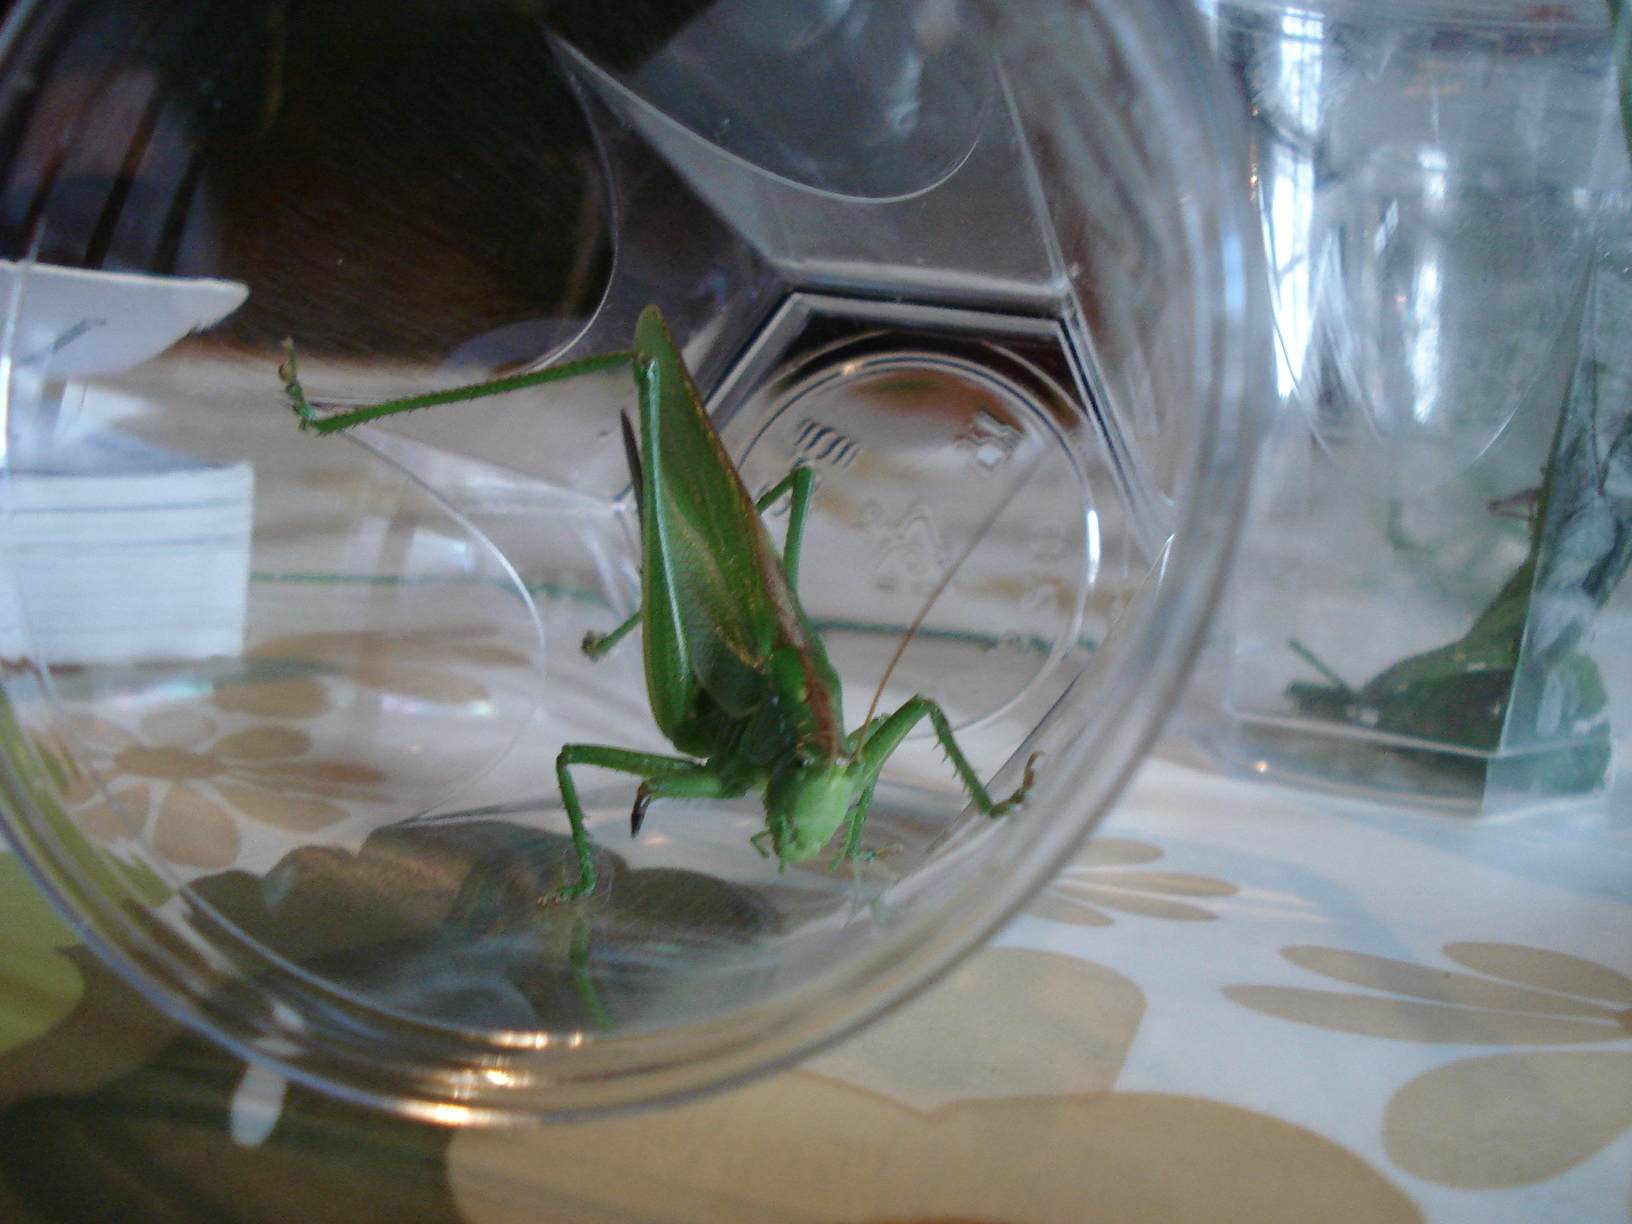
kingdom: Animalia
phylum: Arthropoda
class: Insecta
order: Orthoptera
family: Tettigoniidae
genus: Tettigonia
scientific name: Tettigonia viridissima
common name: Great green bush-cricket
